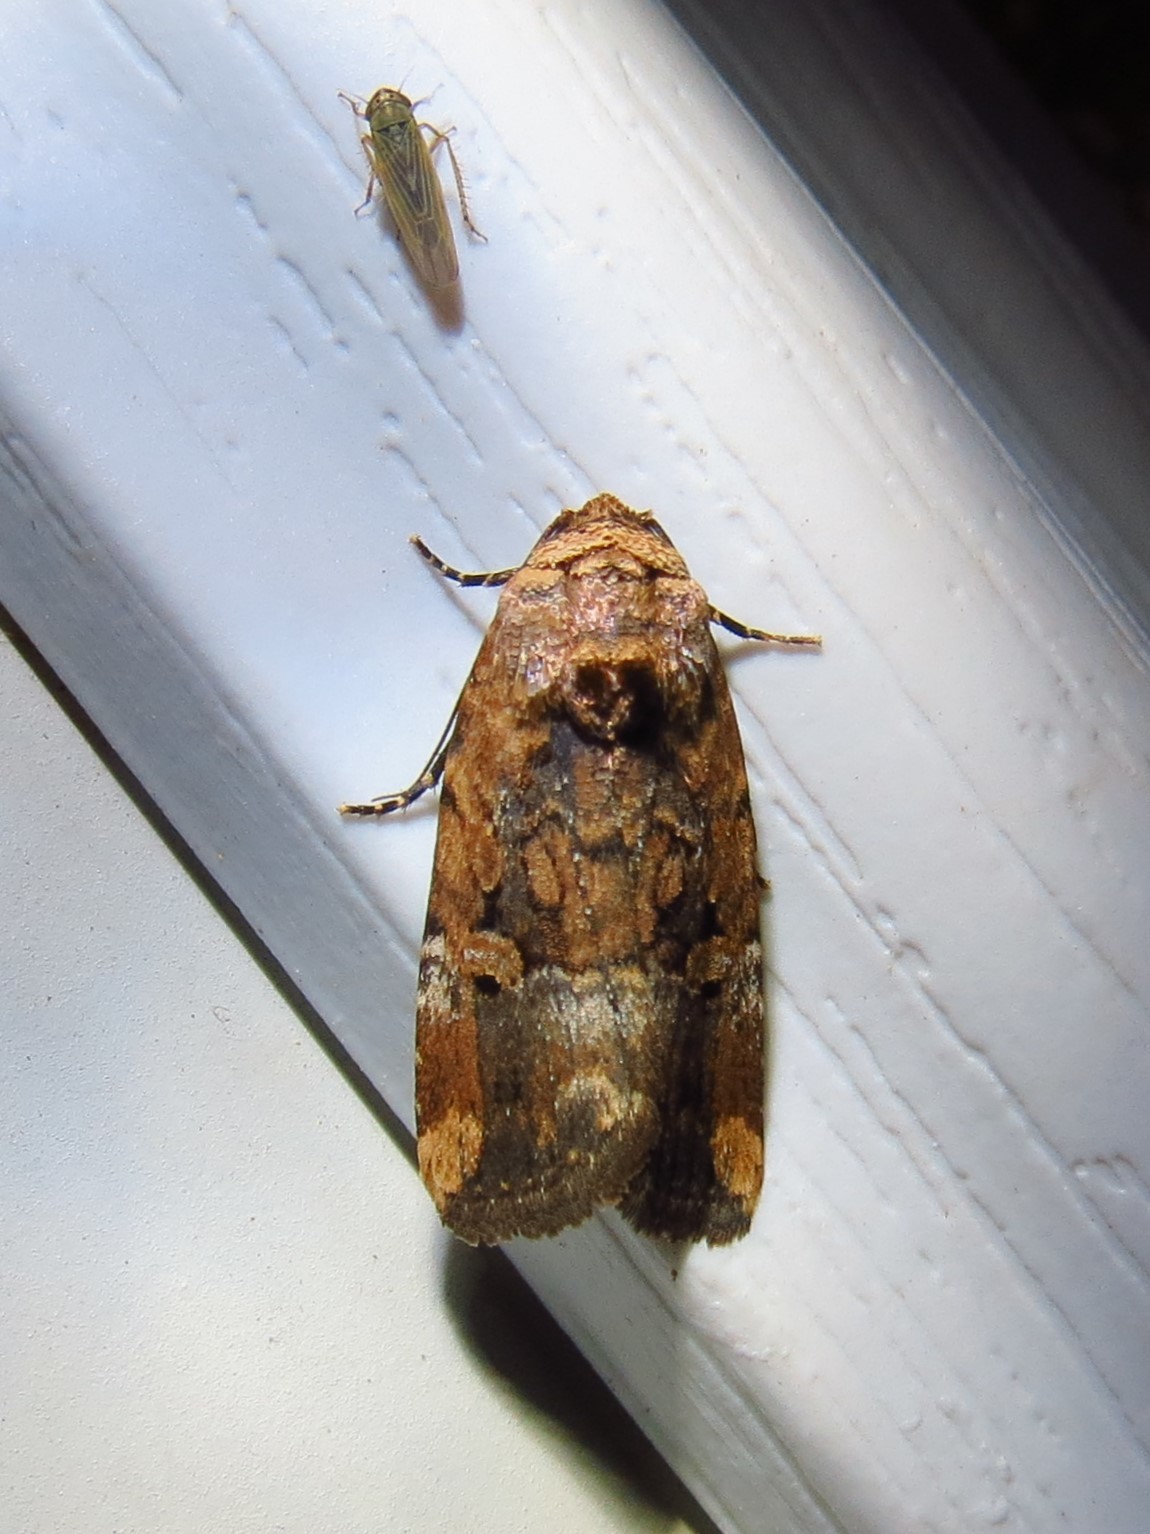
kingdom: Animalia
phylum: Arthropoda
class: Insecta
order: Lepidoptera
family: Noctuidae
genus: Elaphria
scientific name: Elaphria chalcedonia
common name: Chalcedony midget
